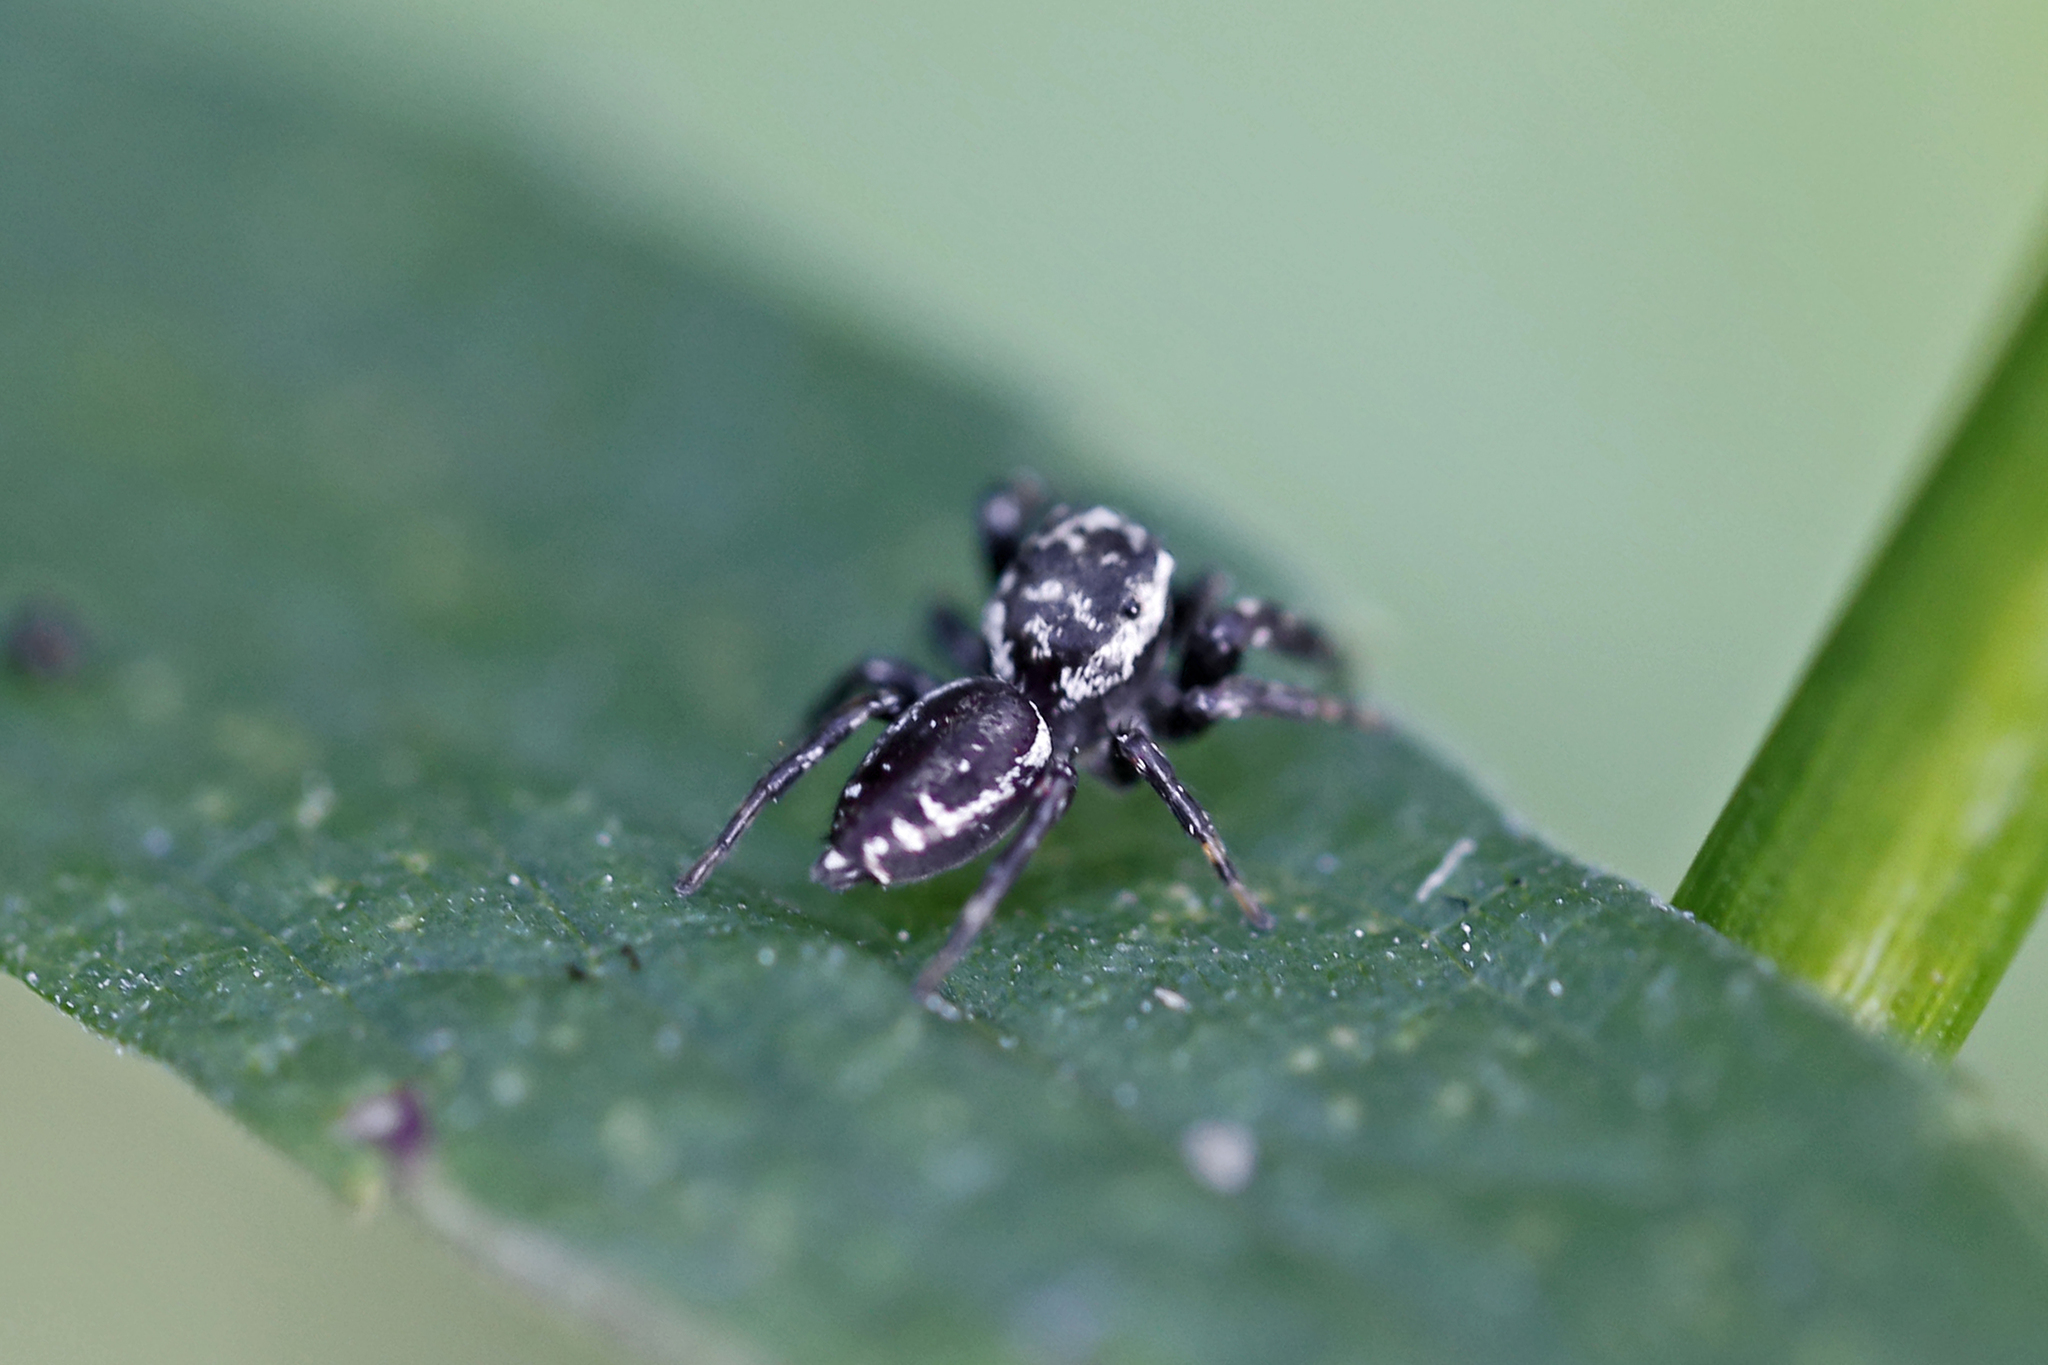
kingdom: Animalia
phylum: Arthropoda
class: Arachnida
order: Araneae
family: Salticidae
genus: Pelegrina
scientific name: Pelegrina galathea
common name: Jumping spiders
